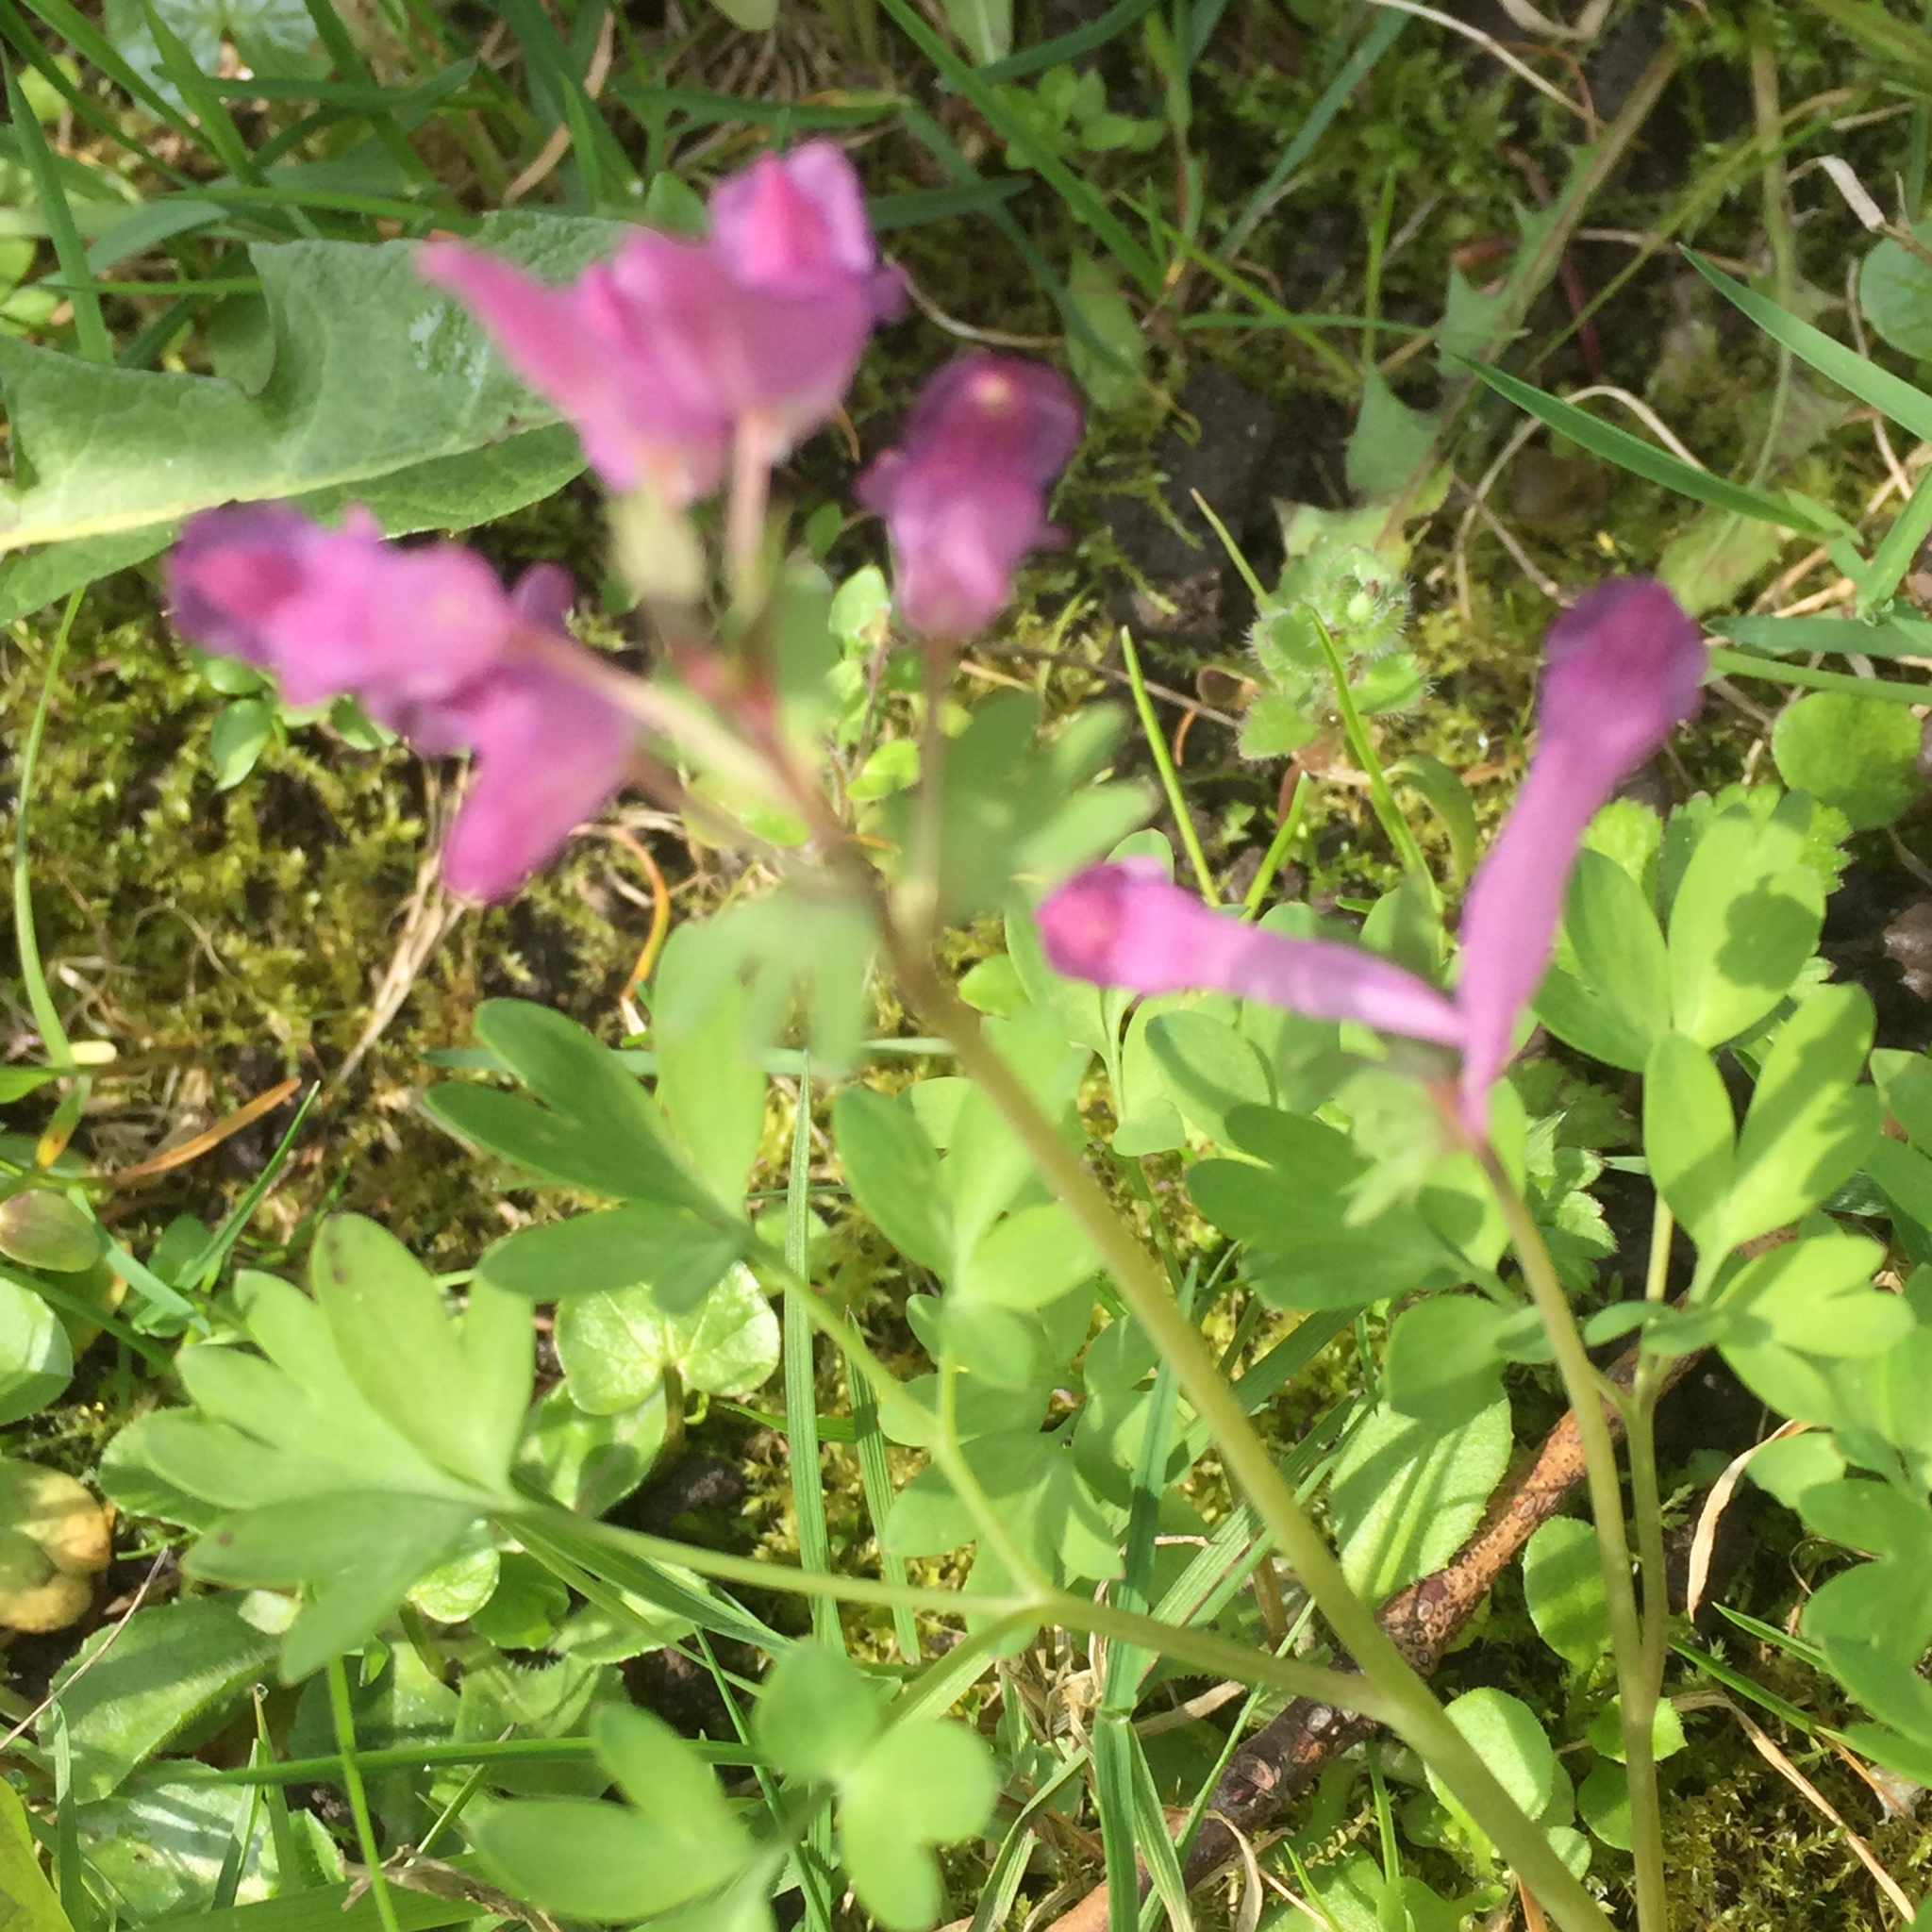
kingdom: Plantae
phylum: Tracheophyta
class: Magnoliopsida
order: Ranunculales
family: Papaveraceae
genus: Corydalis
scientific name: Corydalis solida
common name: Bird-in-a-bush
